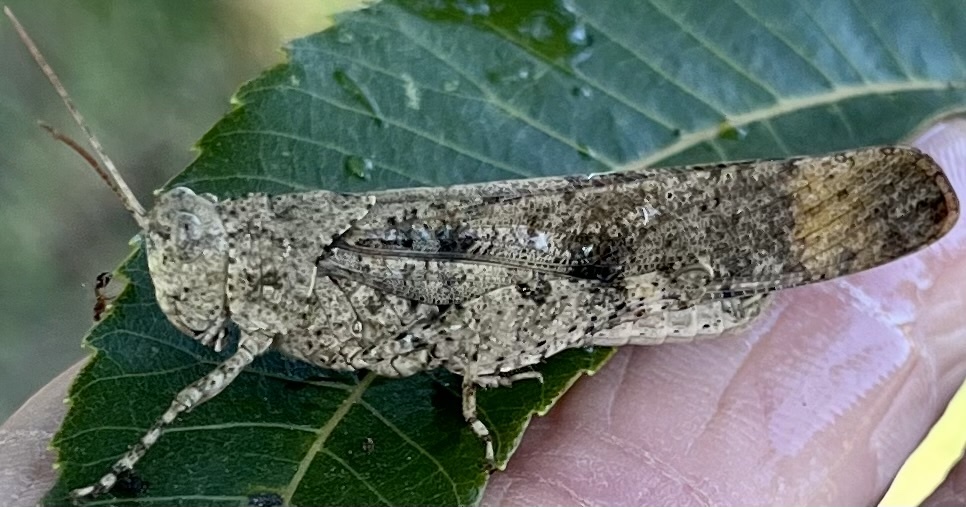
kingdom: Animalia
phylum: Arthropoda
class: Insecta
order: Orthoptera
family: Acrididae
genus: Dissosteira
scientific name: Dissosteira carolina
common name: Carolina grasshopper
